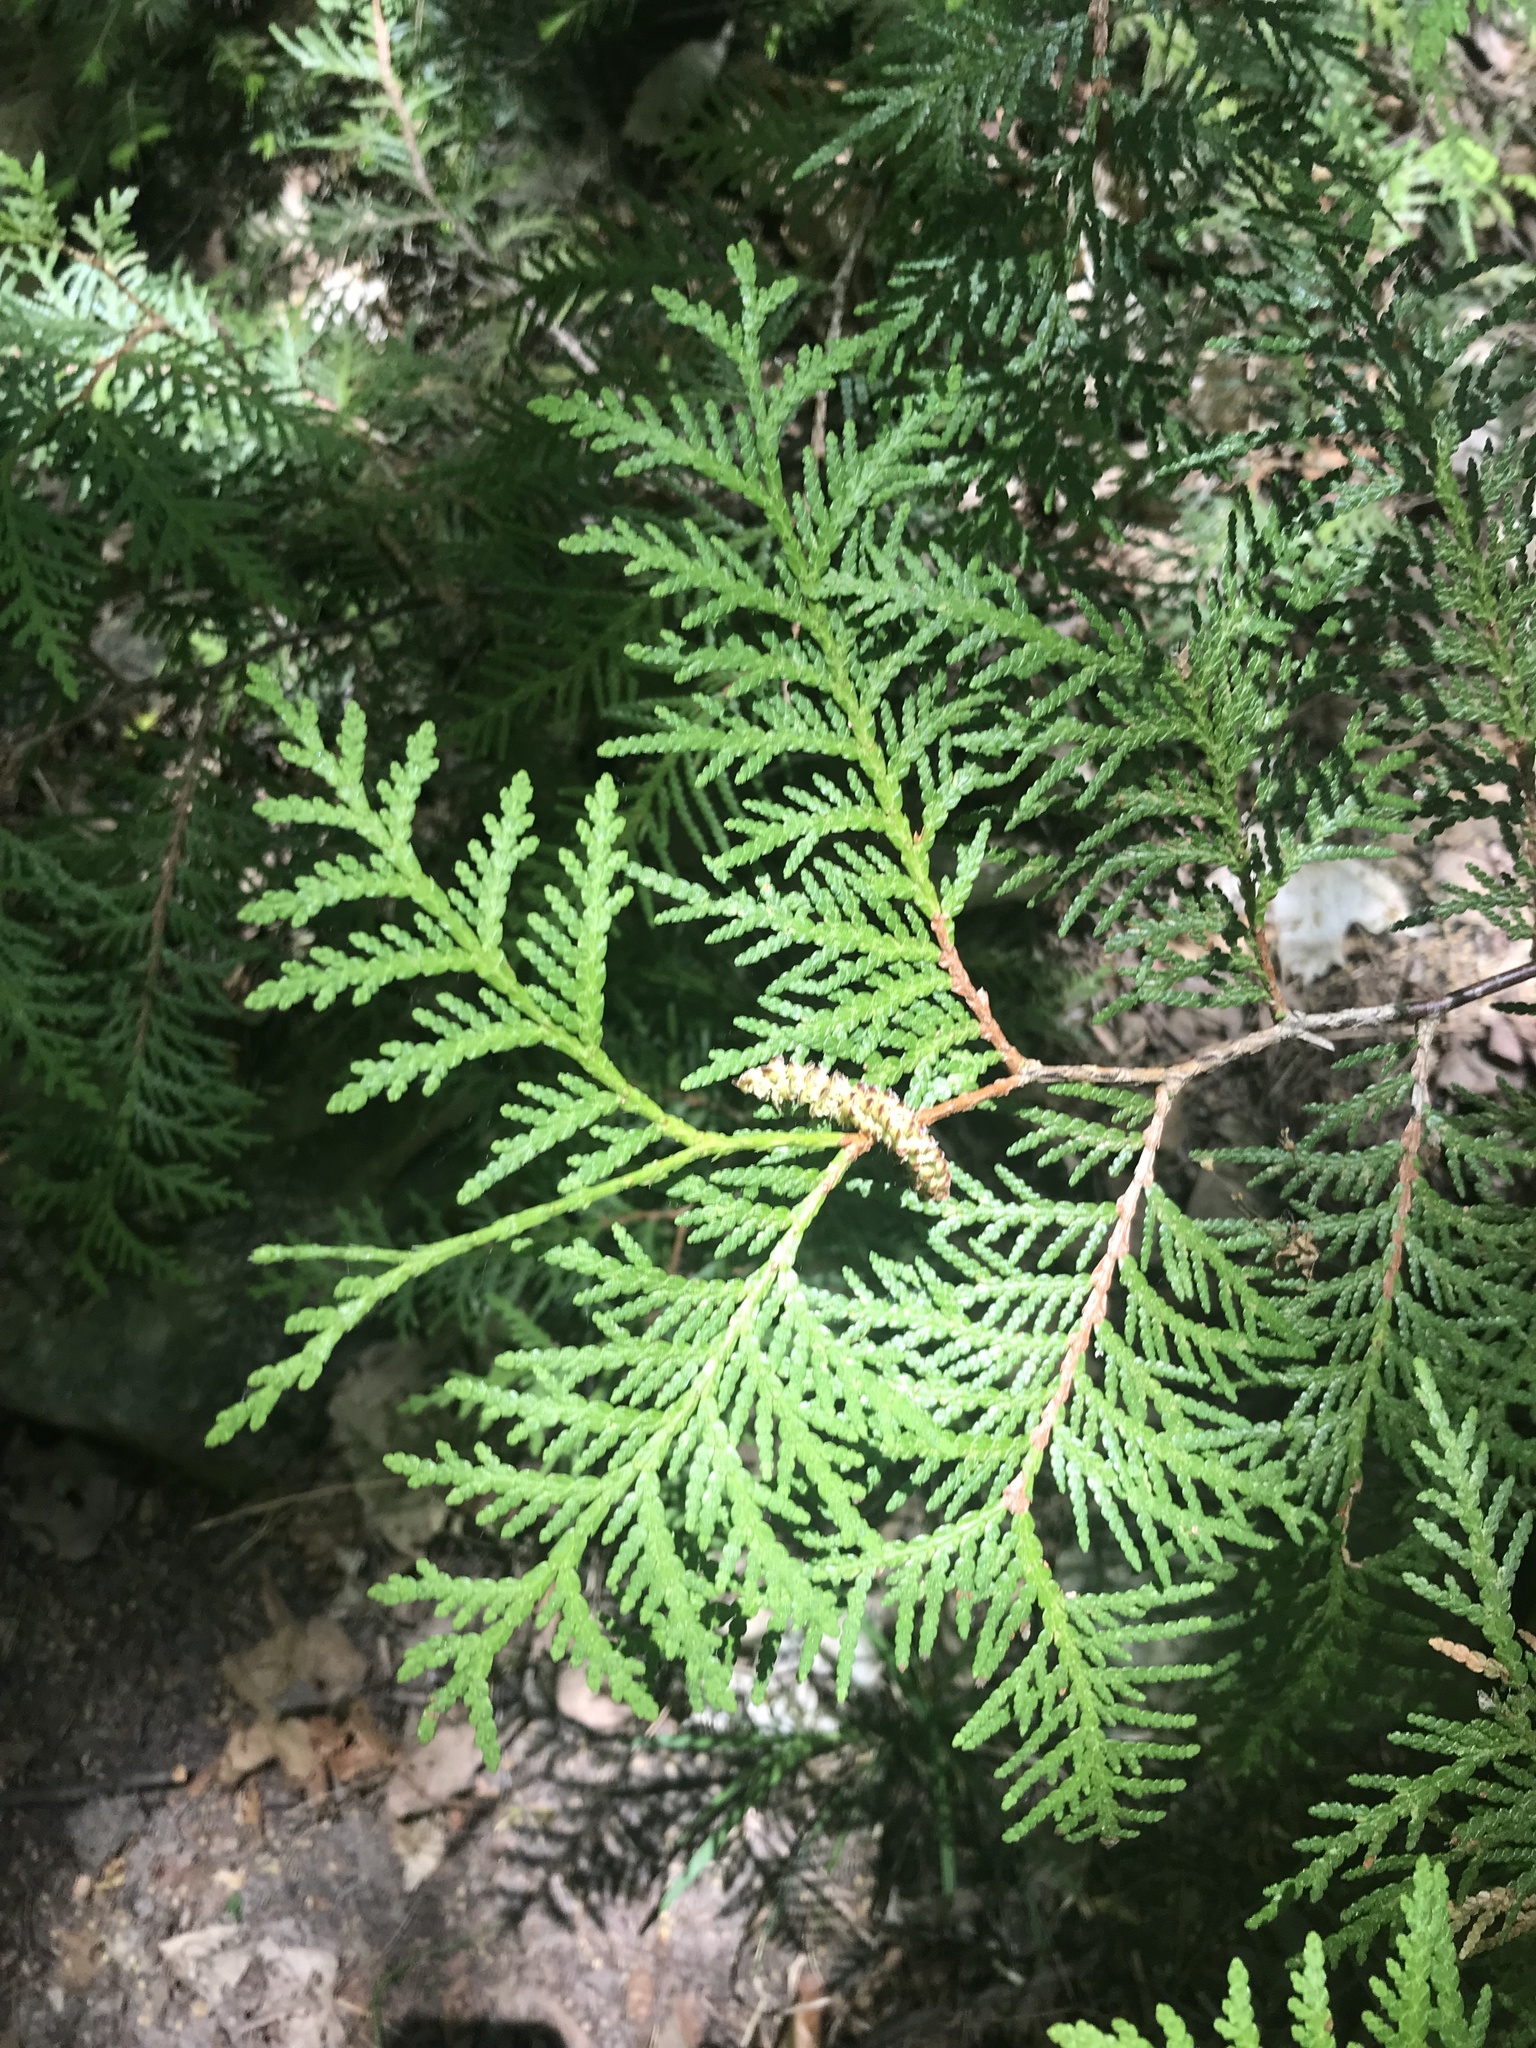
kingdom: Plantae
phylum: Tracheophyta
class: Pinopsida
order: Pinales
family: Cupressaceae
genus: Thuja
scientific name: Thuja occidentalis
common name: Northern white-cedar
